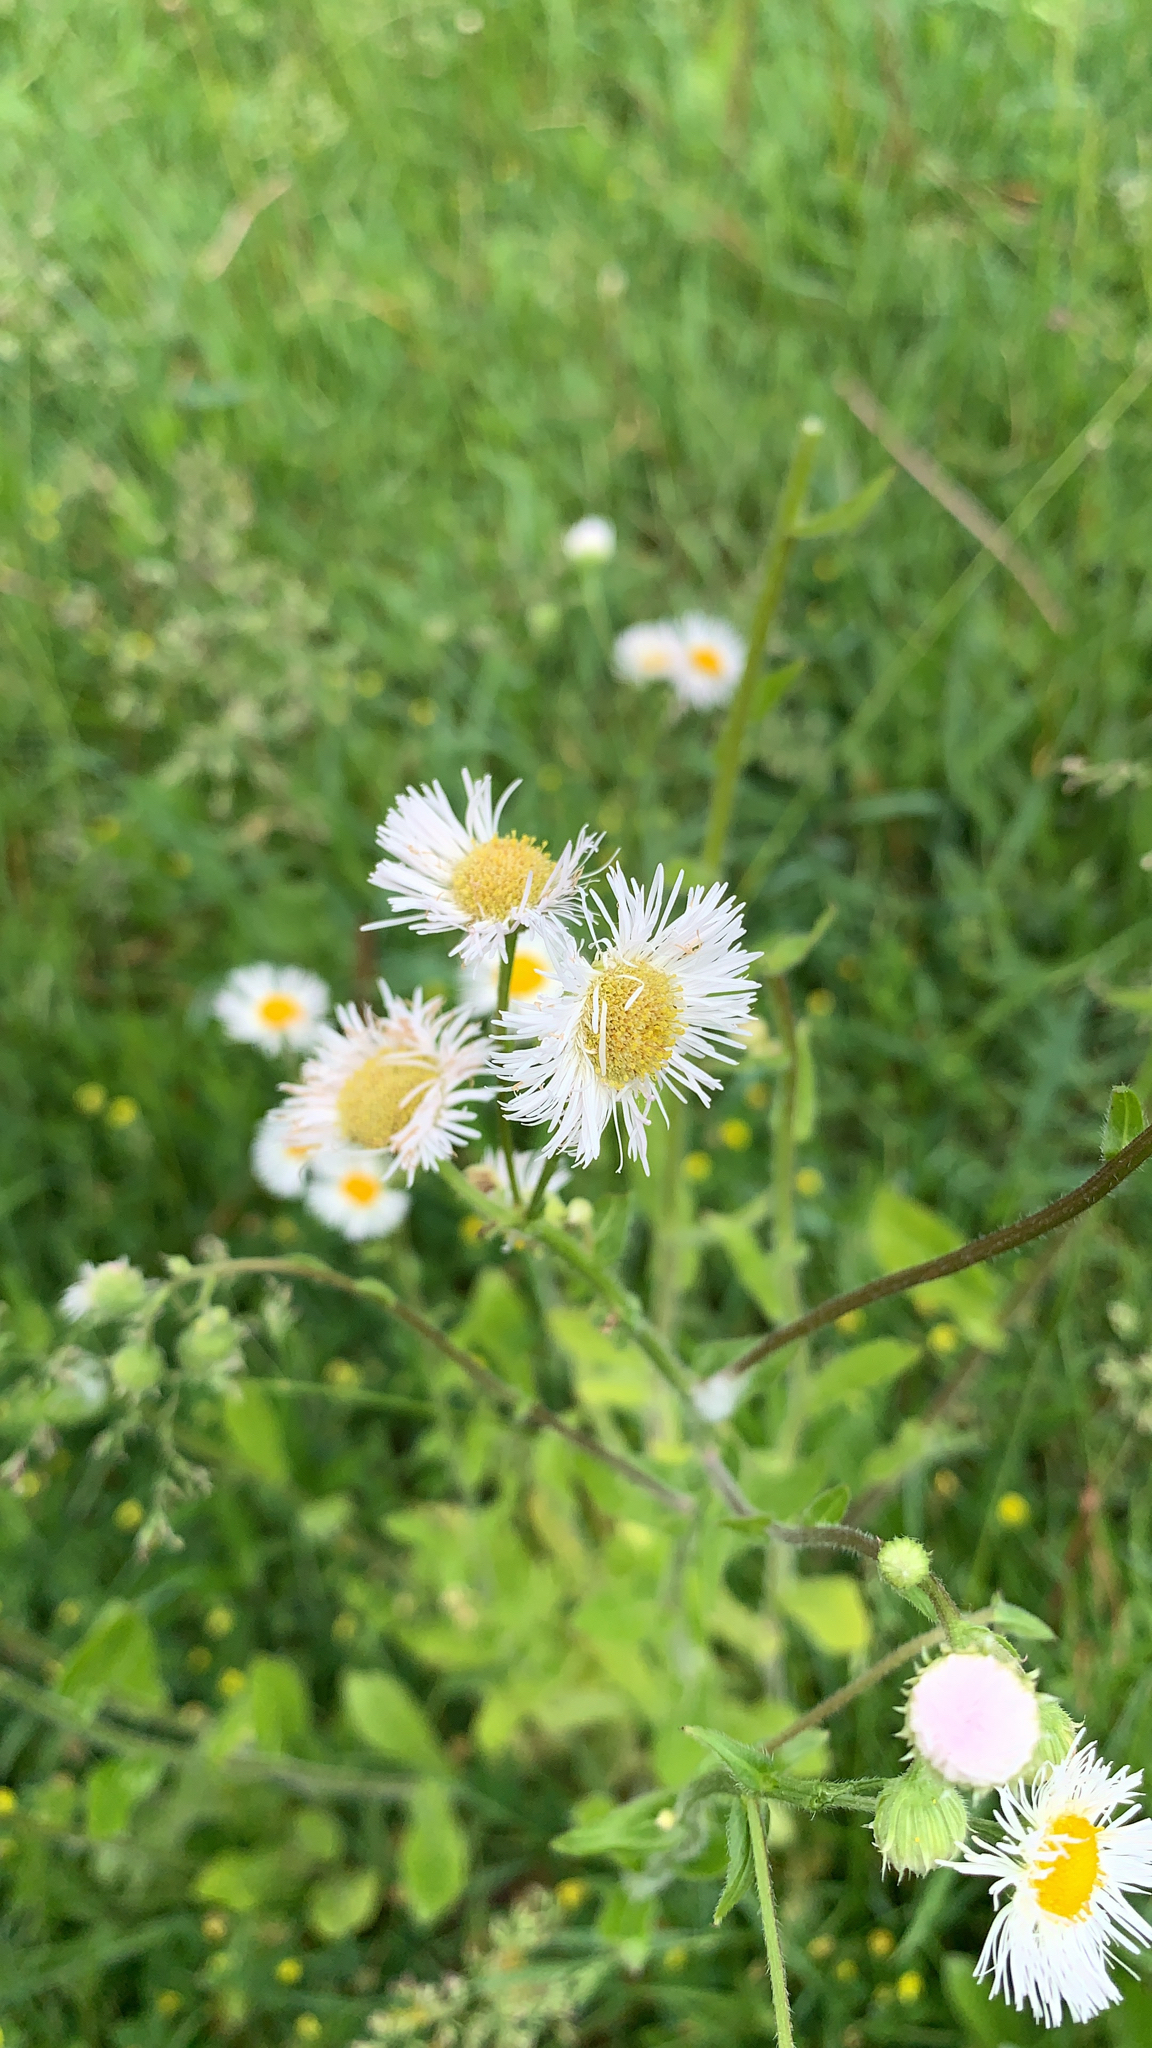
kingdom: Plantae
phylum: Tracheophyta
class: Magnoliopsida
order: Asterales
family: Asteraceae
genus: Erigeron
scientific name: Erigeron philadelphicus
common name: Robin's-plantain
